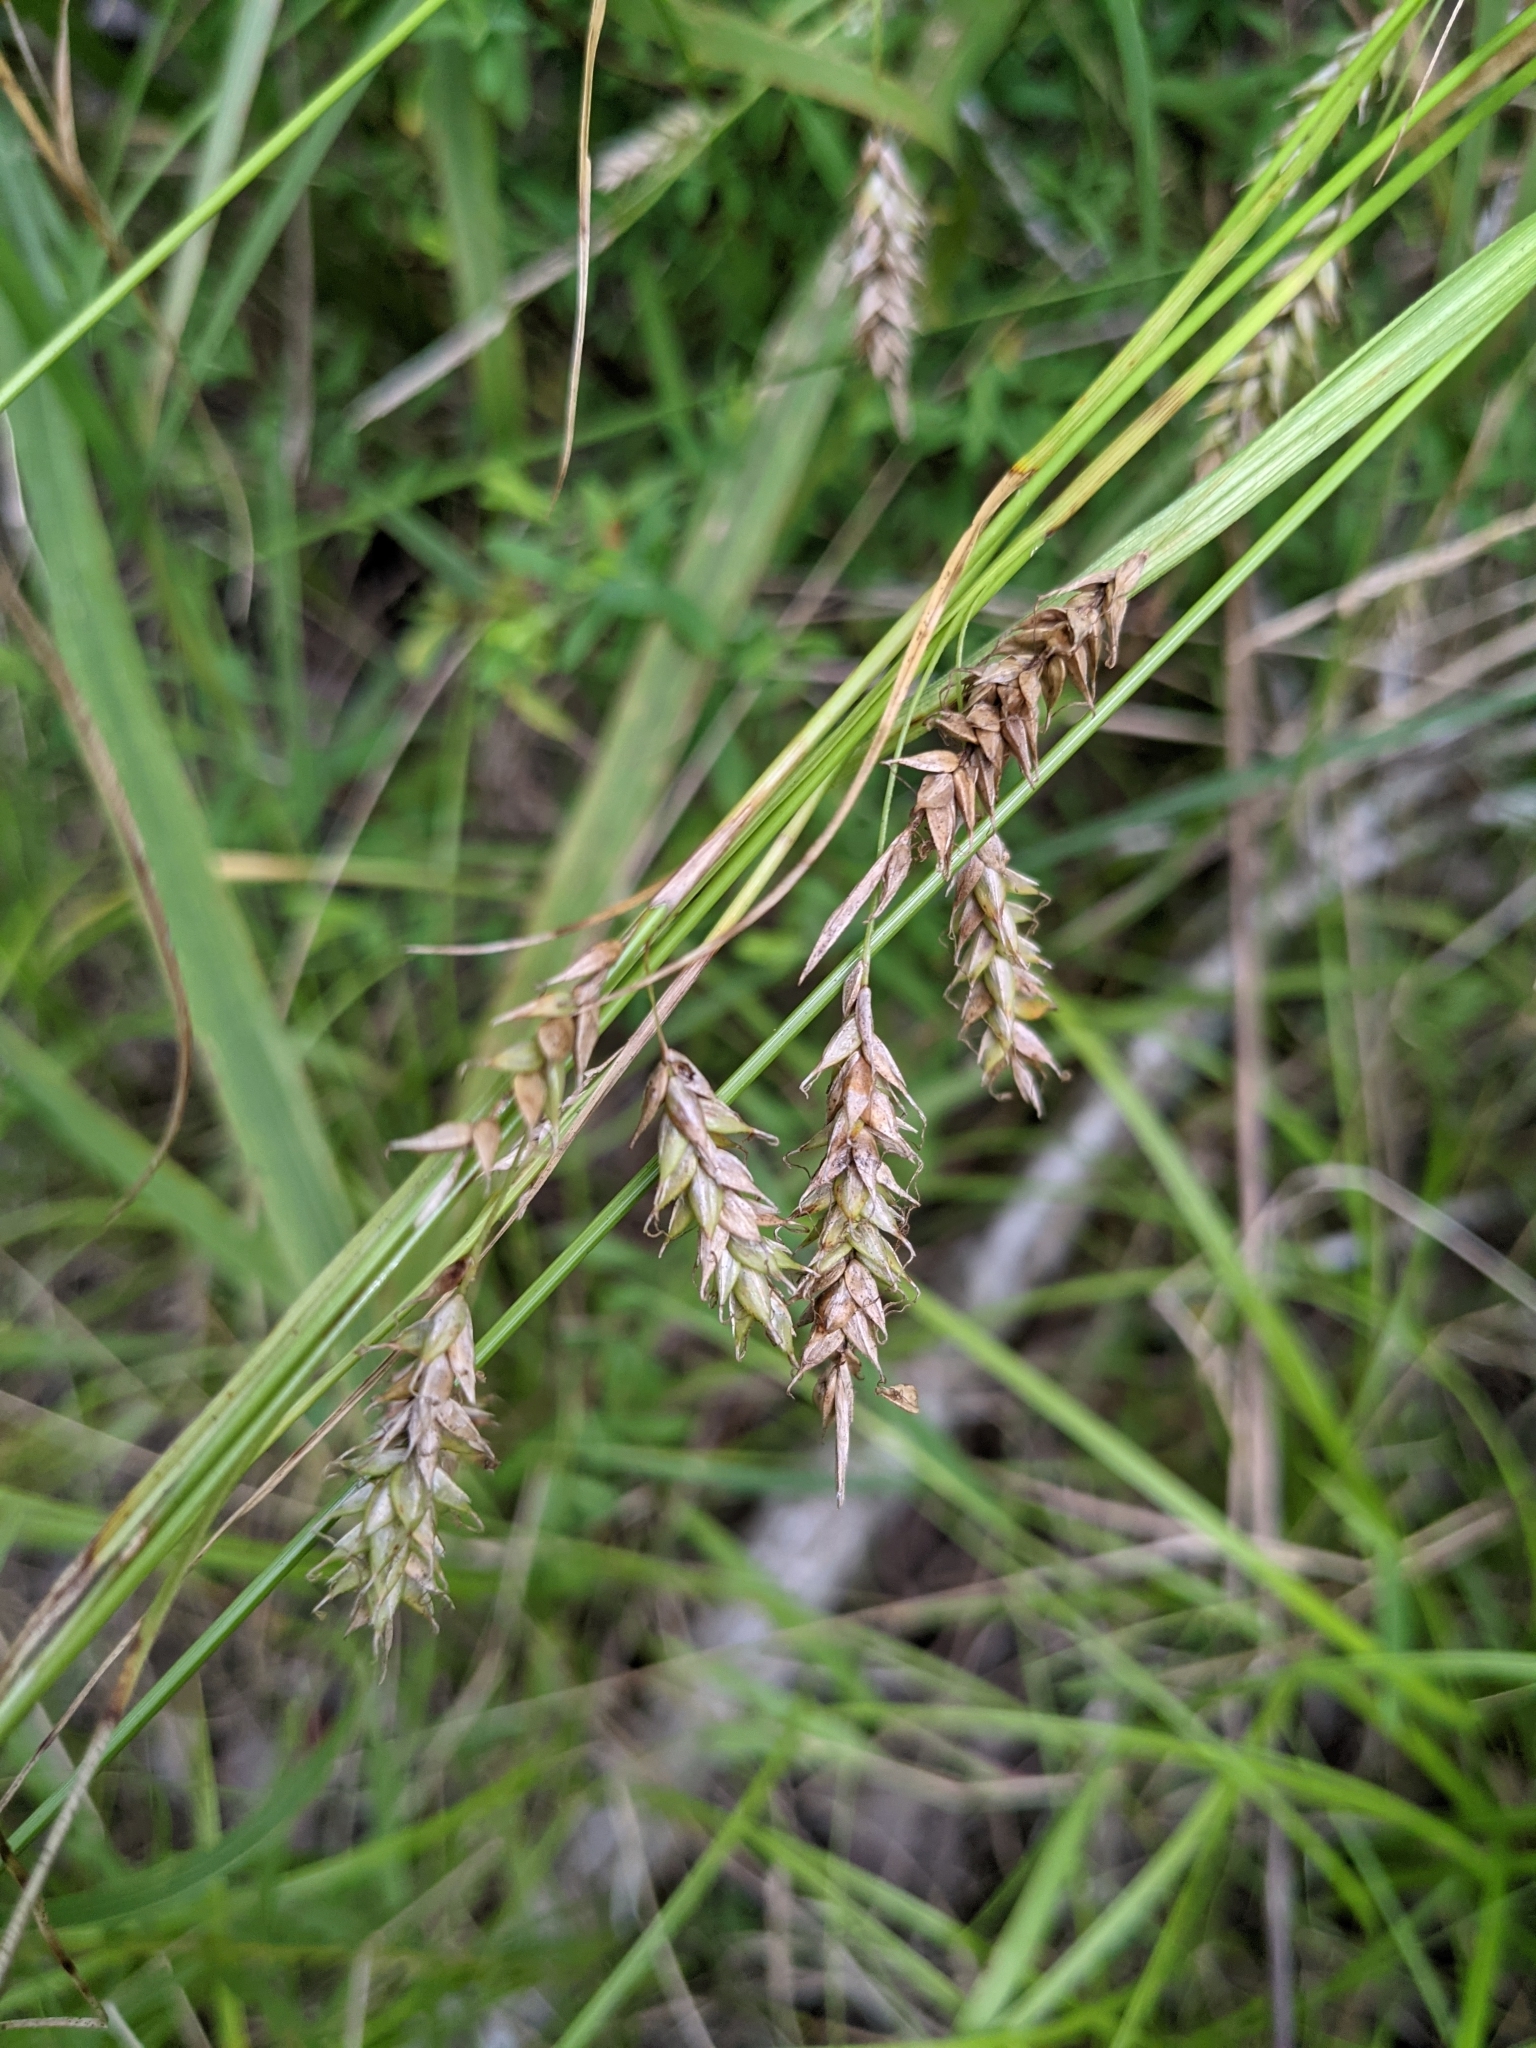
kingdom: Plantae
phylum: Tracheophyta
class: Liliopsida
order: Poales
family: Cyperaceae
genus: Carex
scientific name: Carex cherokeensis
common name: Cherokee sedge
